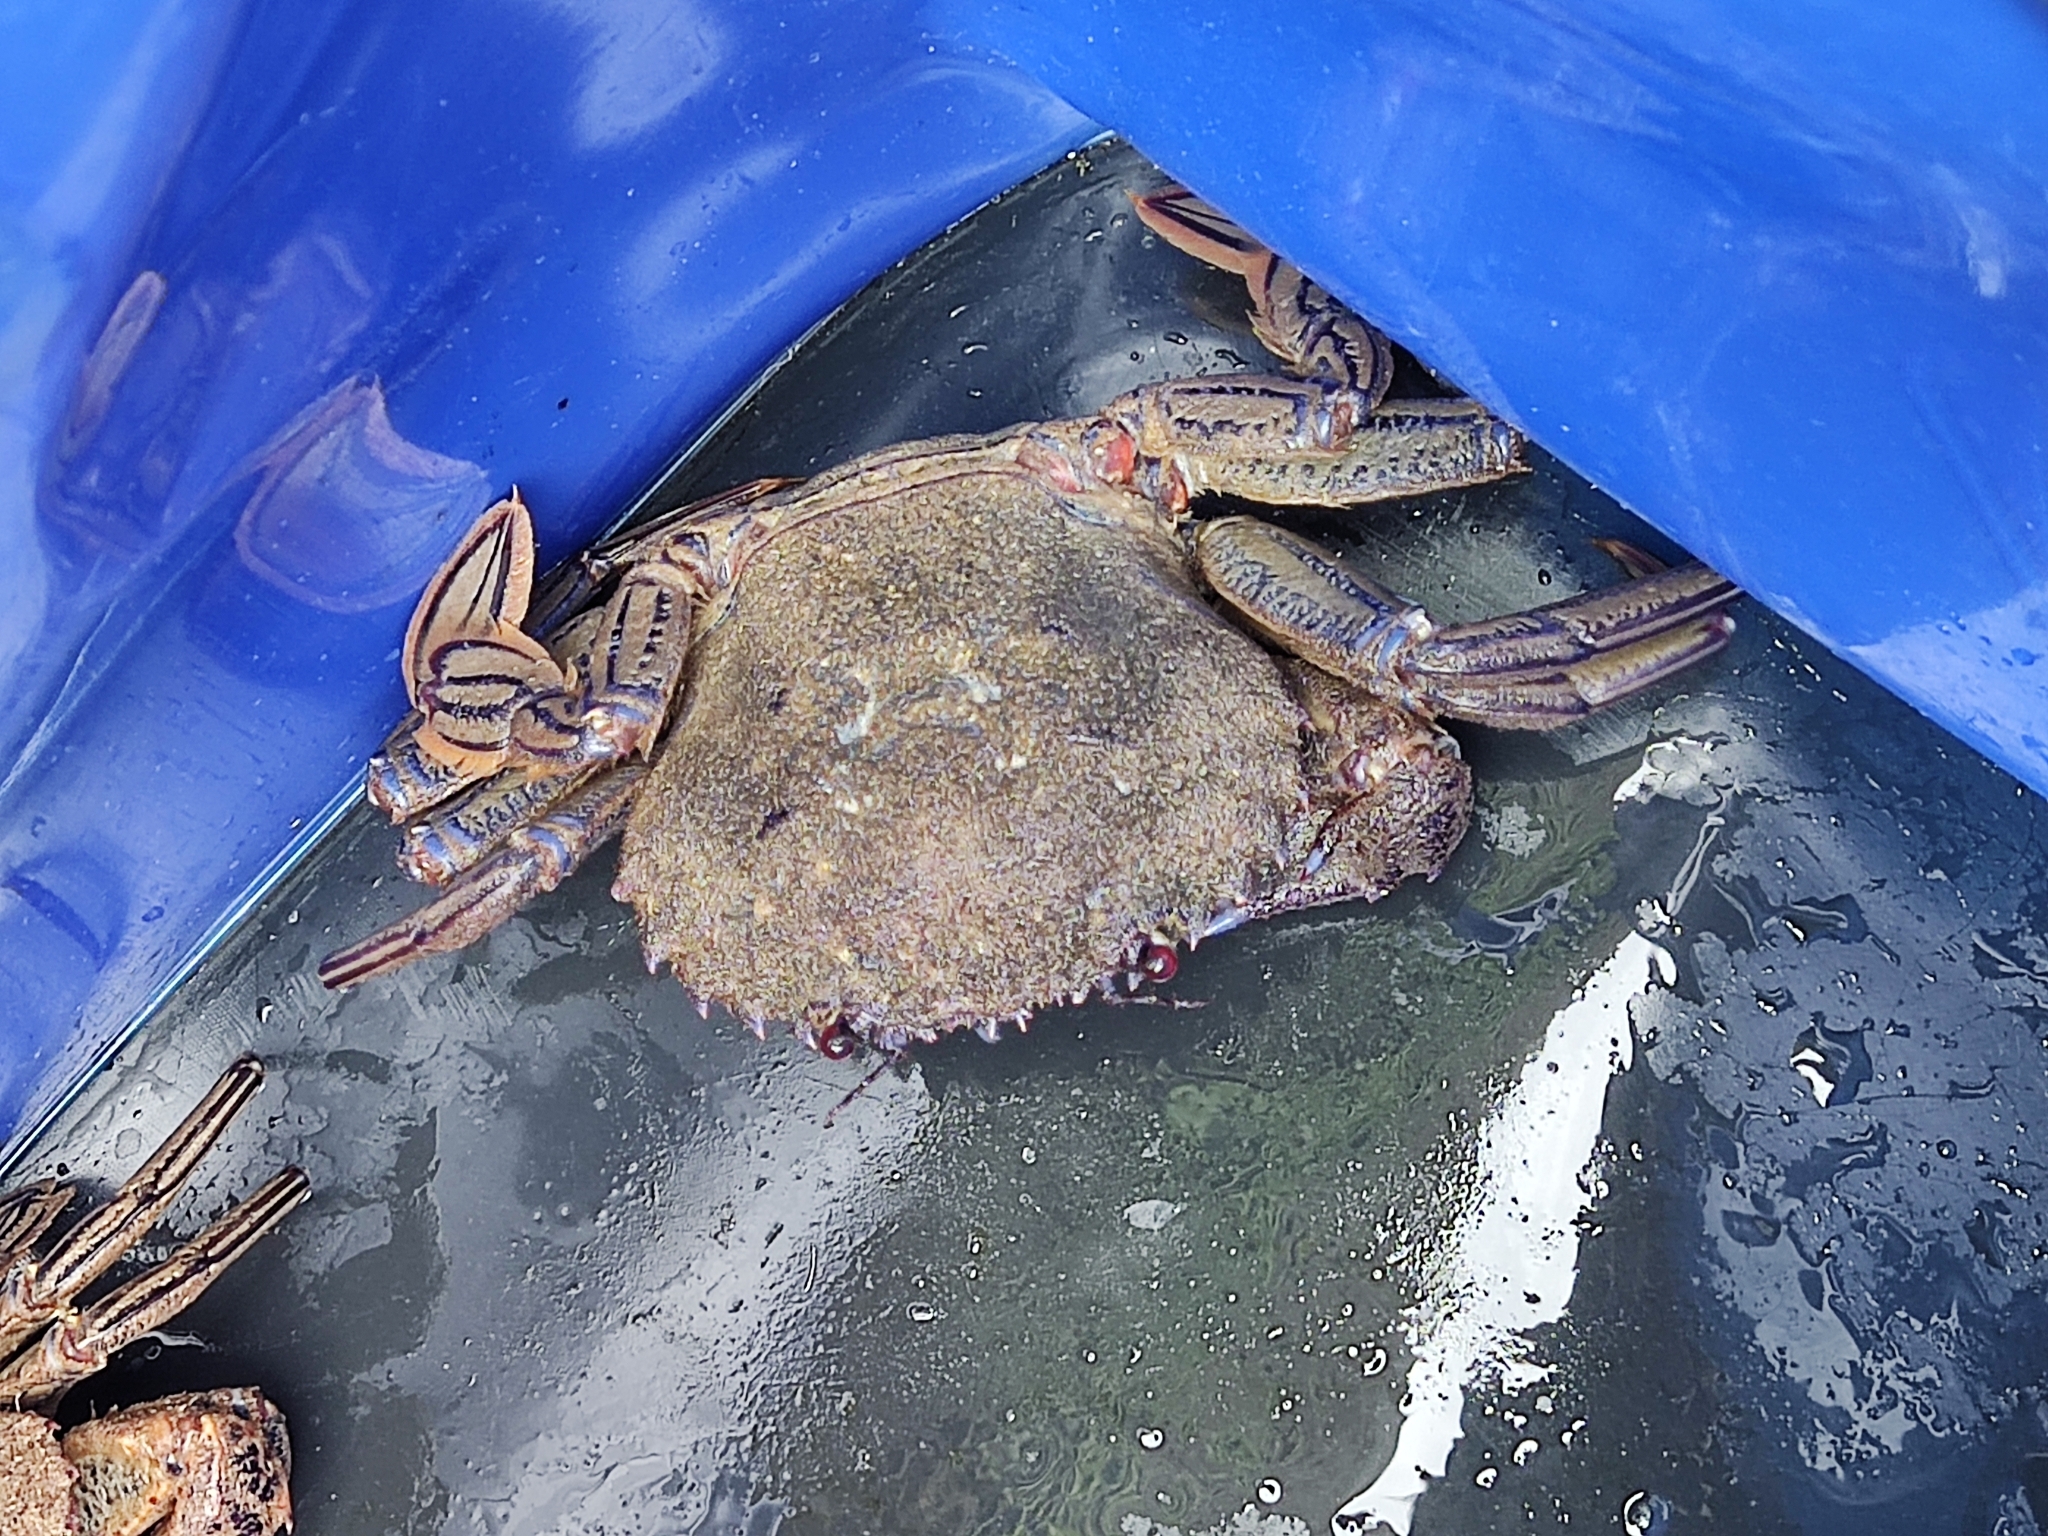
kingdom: Animalia
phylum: Arthropoda
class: Malacostraca
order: Decapoda
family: Polybiidae
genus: Necora
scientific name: Necora puber
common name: Velvet swimming crab
